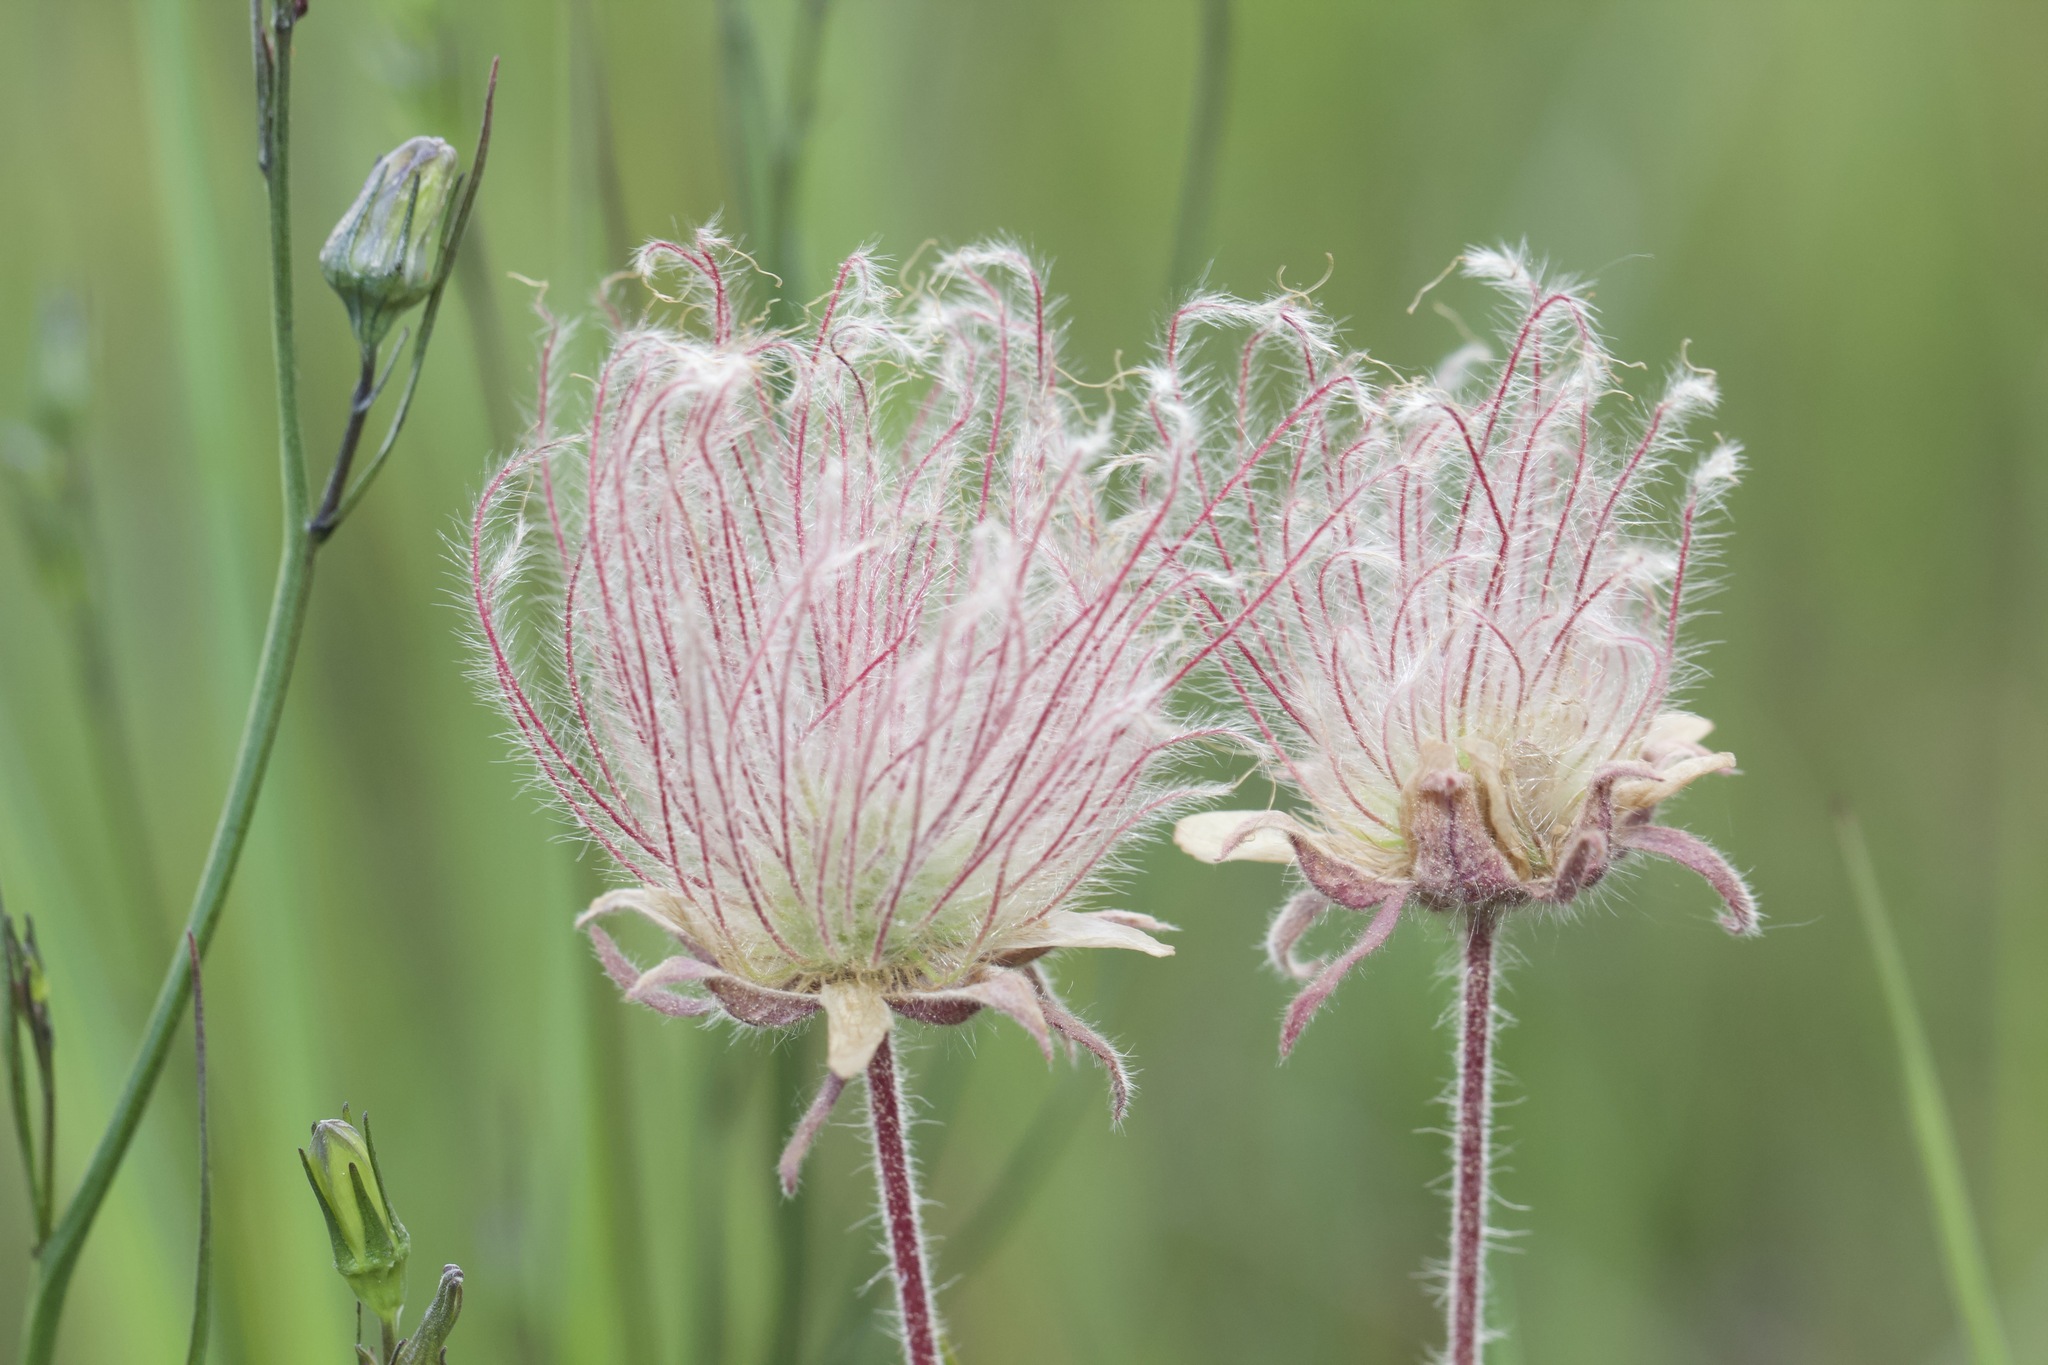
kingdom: Plantae
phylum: Tracheophyta
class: Magnoliopsida
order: Rosales
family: Rosaceae
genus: Geum
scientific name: Geum triflorum
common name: Old man's whiskers
